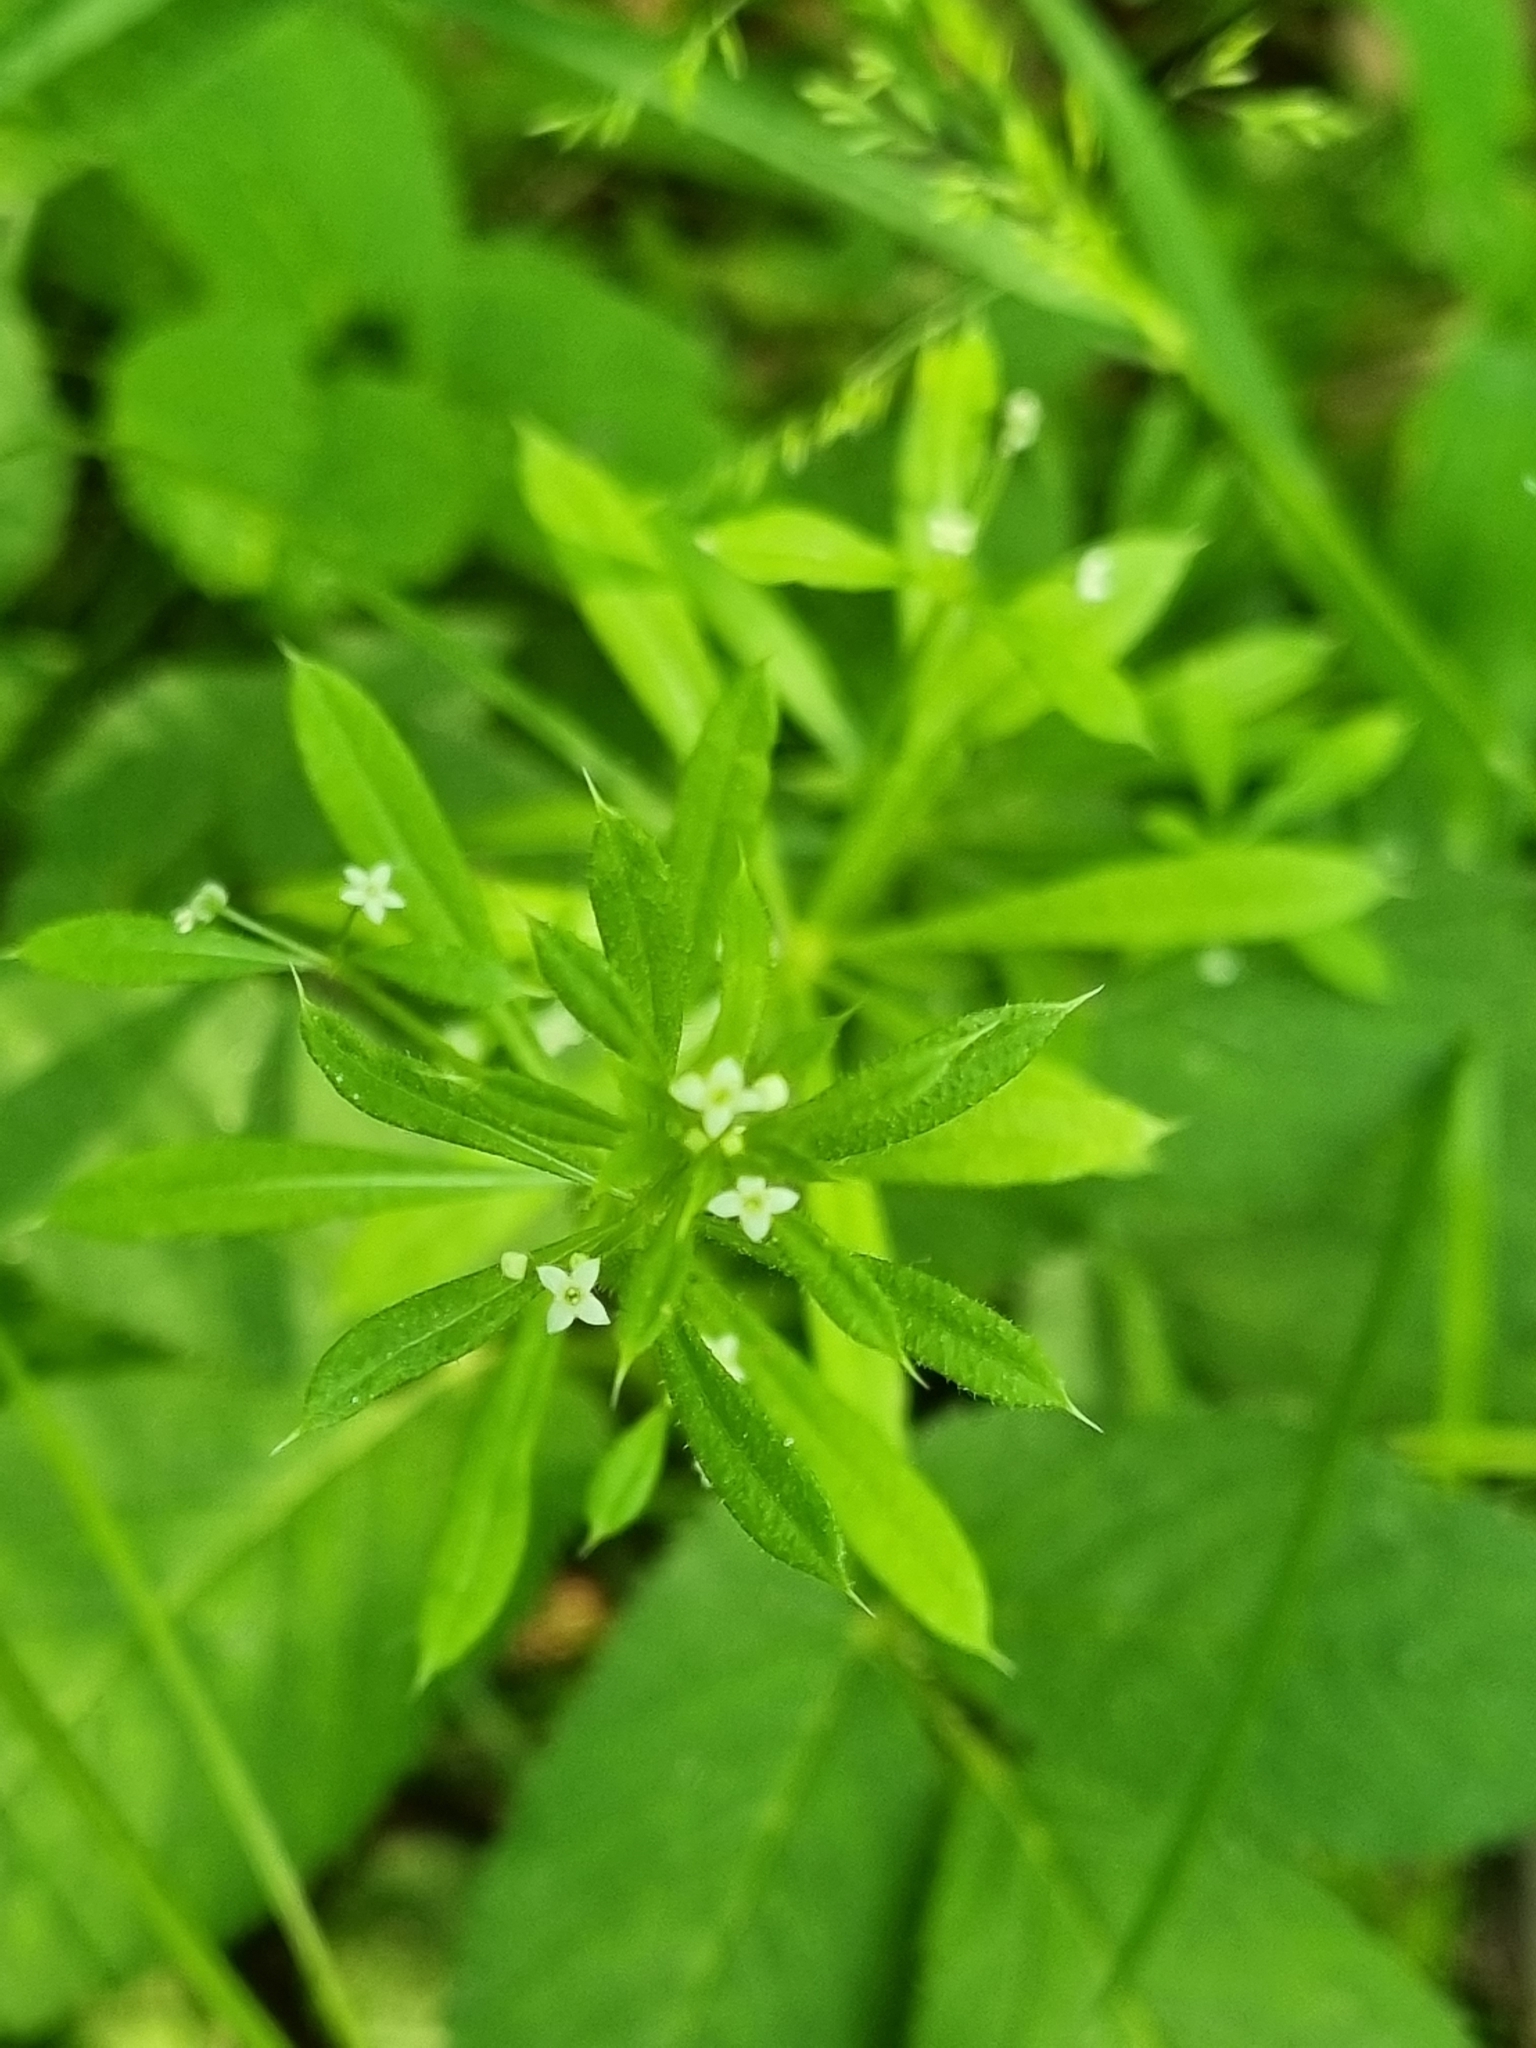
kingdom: Plantae
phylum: Tracheophyta
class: Magnoliopsida
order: Gentianales
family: Rubiaceae
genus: Galium
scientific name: Galium aparine
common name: Cleavers
